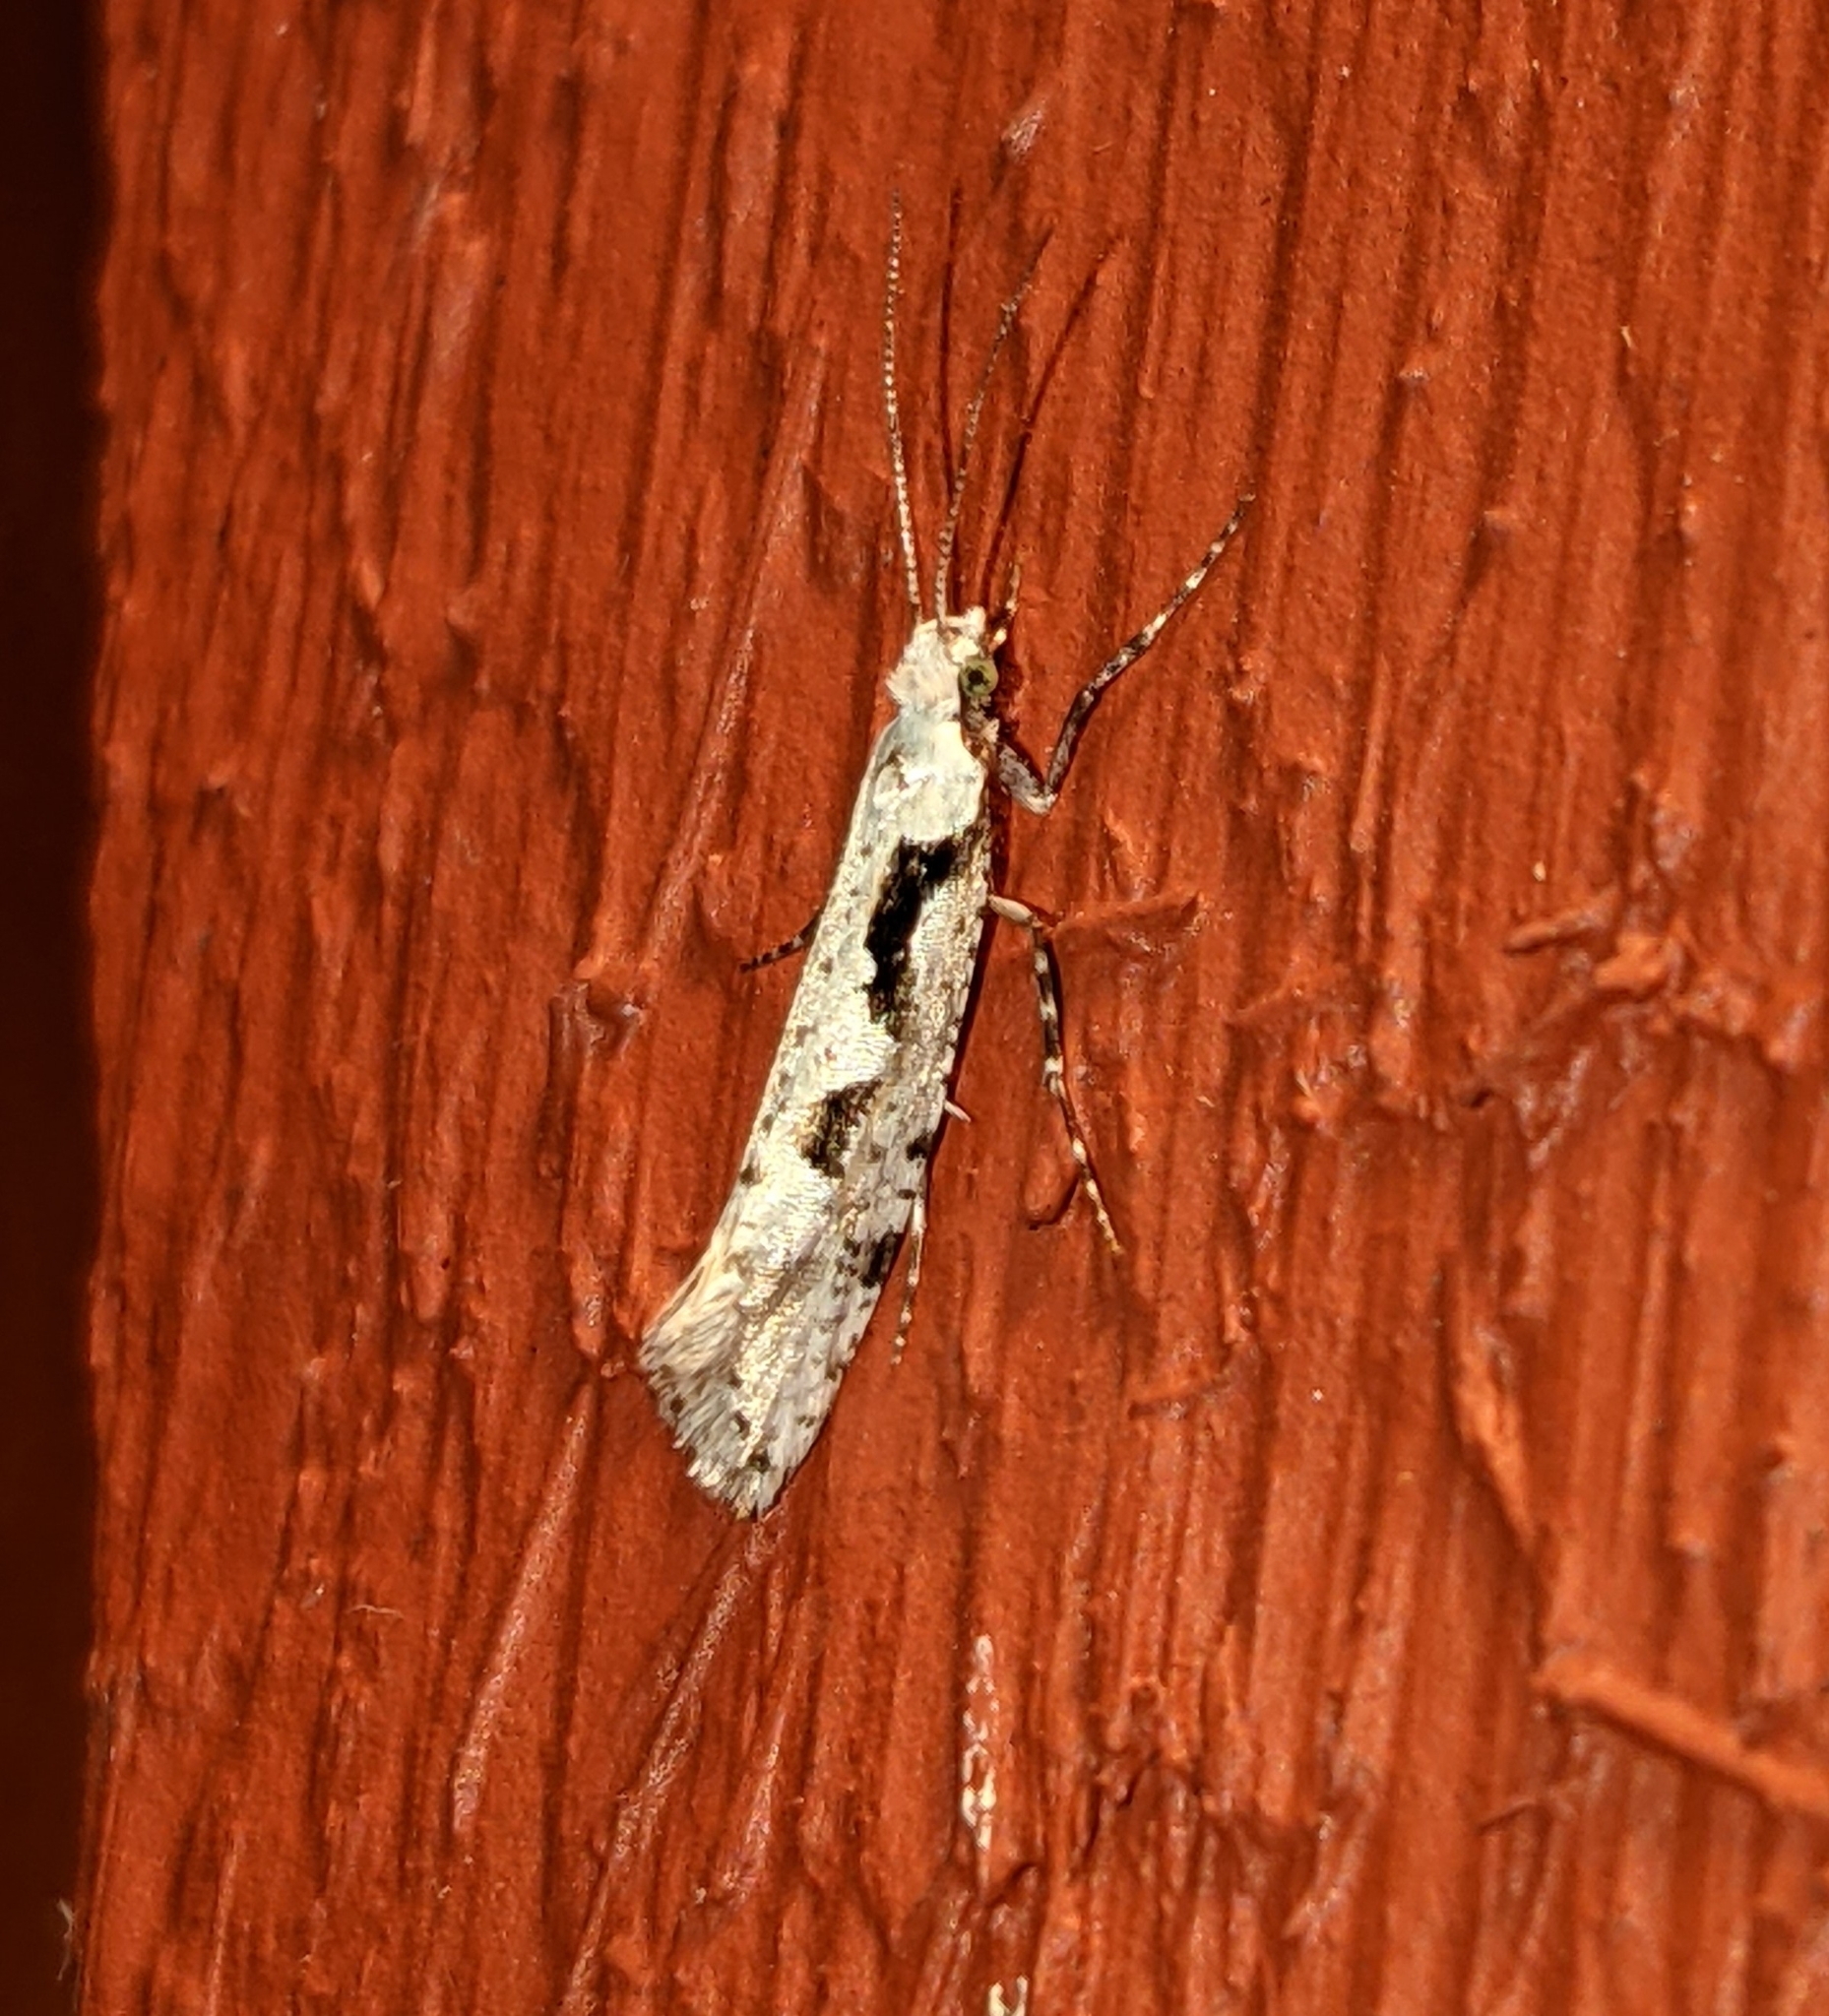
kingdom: Animalia
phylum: Arthropoda
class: Insecta
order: Lepidoptera
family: Plutellidae
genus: Rhigognostis
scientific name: Rhigognostis interrupta
